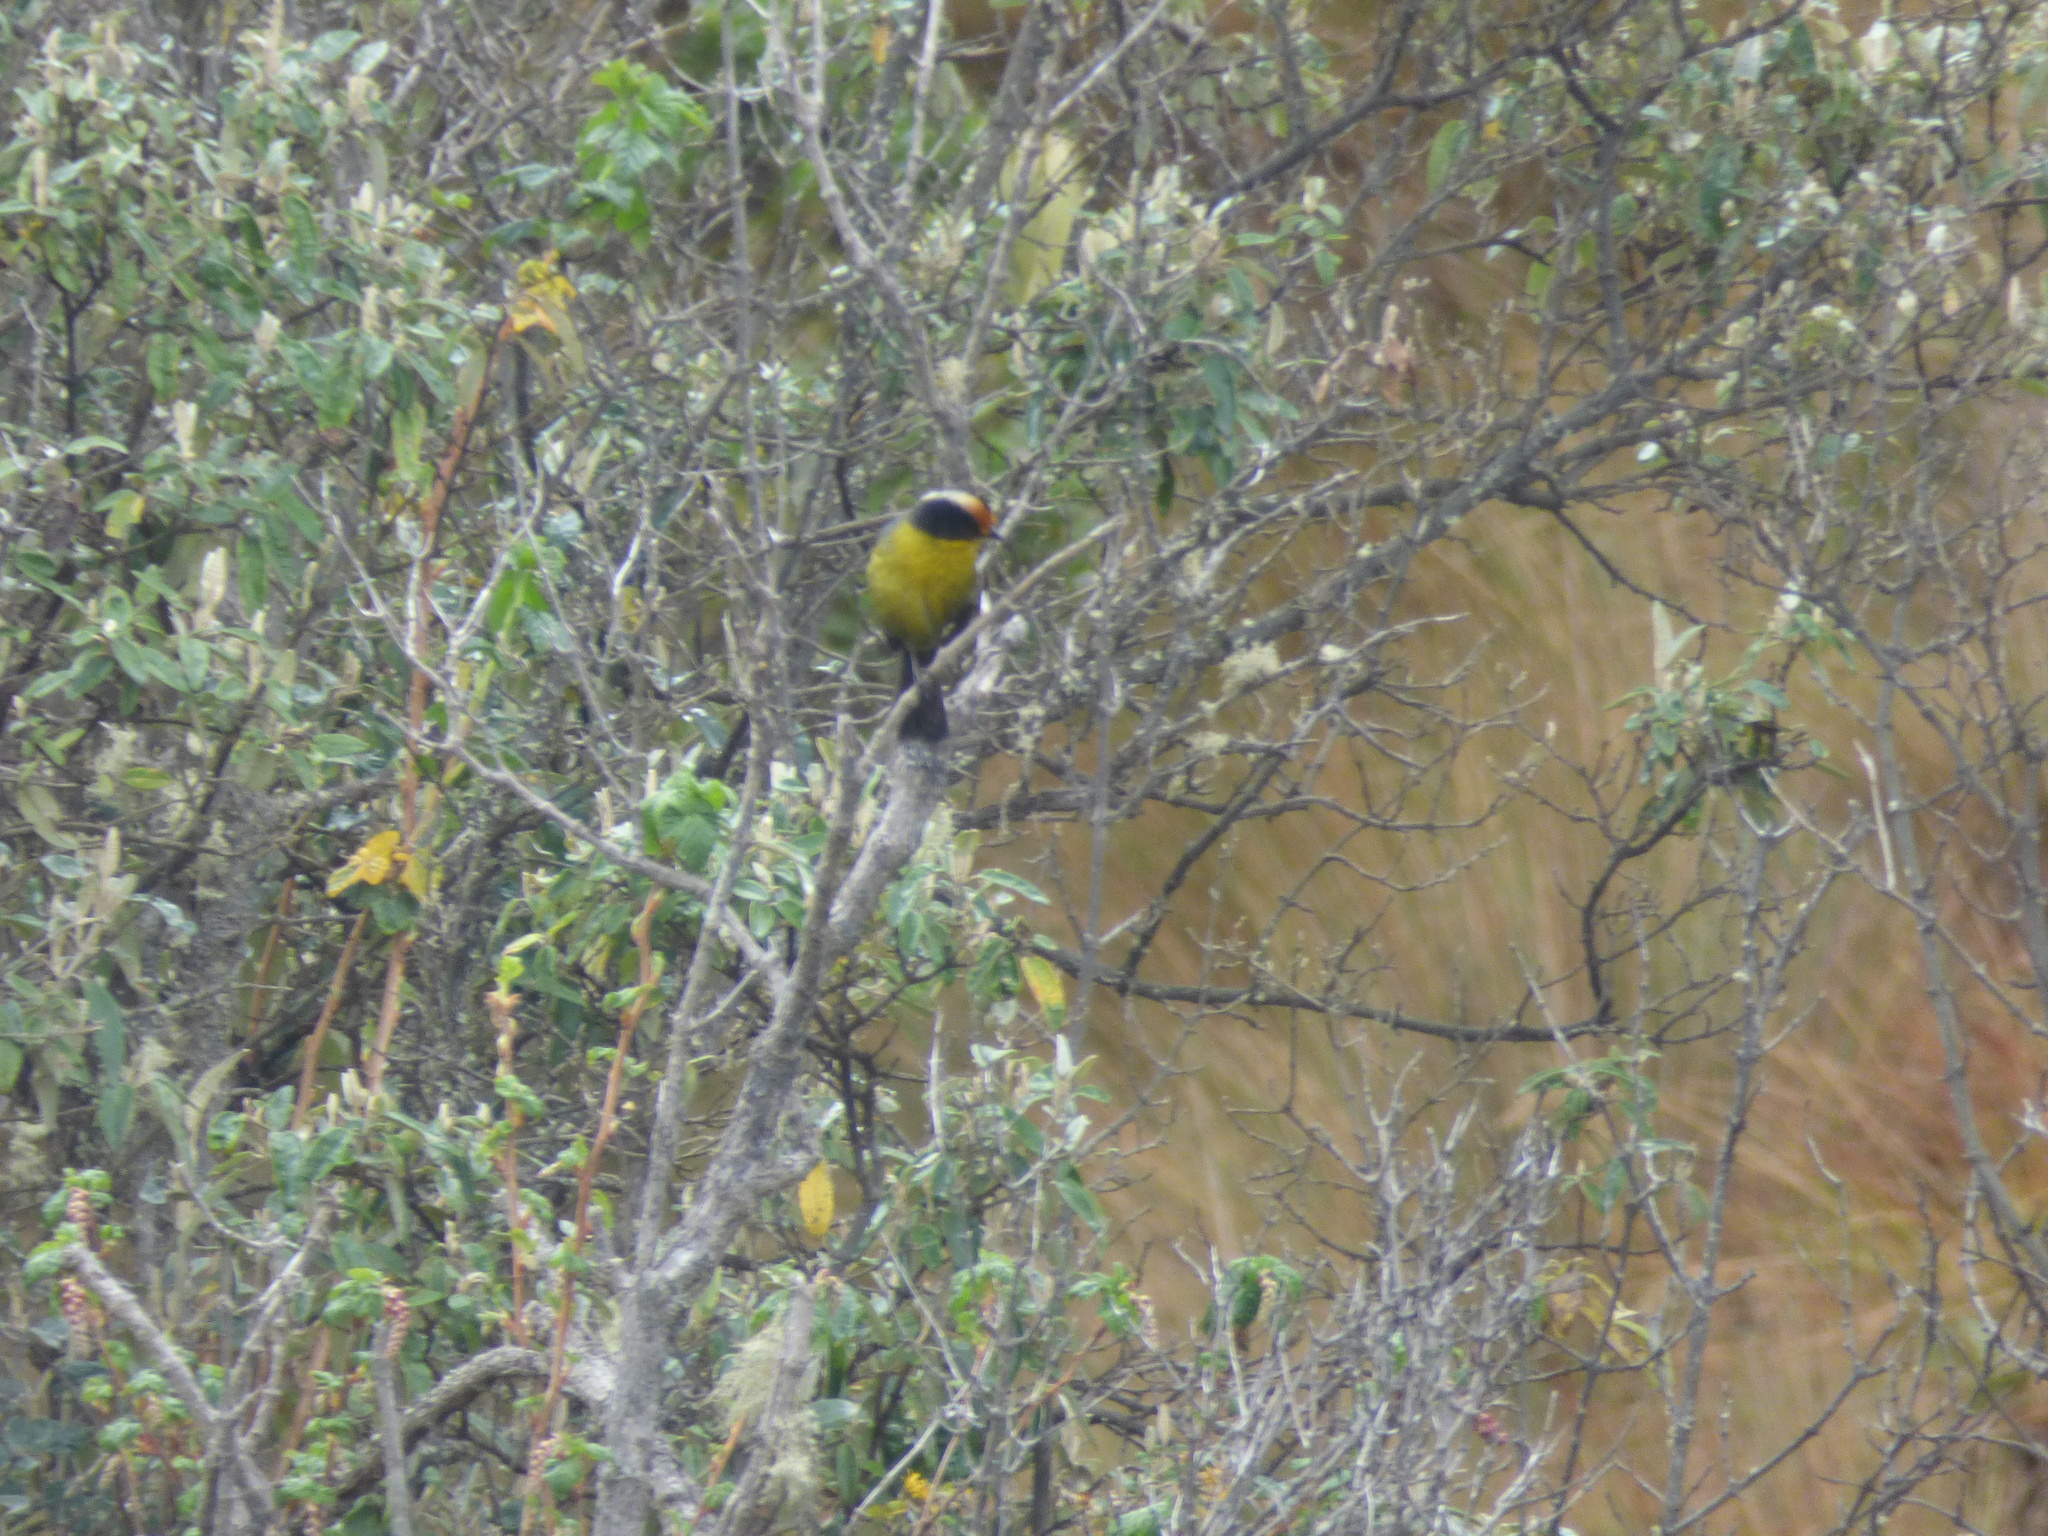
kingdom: Animalia
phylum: Chordata
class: Aves
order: Passeriformes
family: Passerellidae
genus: Atlapetes
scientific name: Atlapetes pallidinucha
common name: Pale-naped brushfinch
